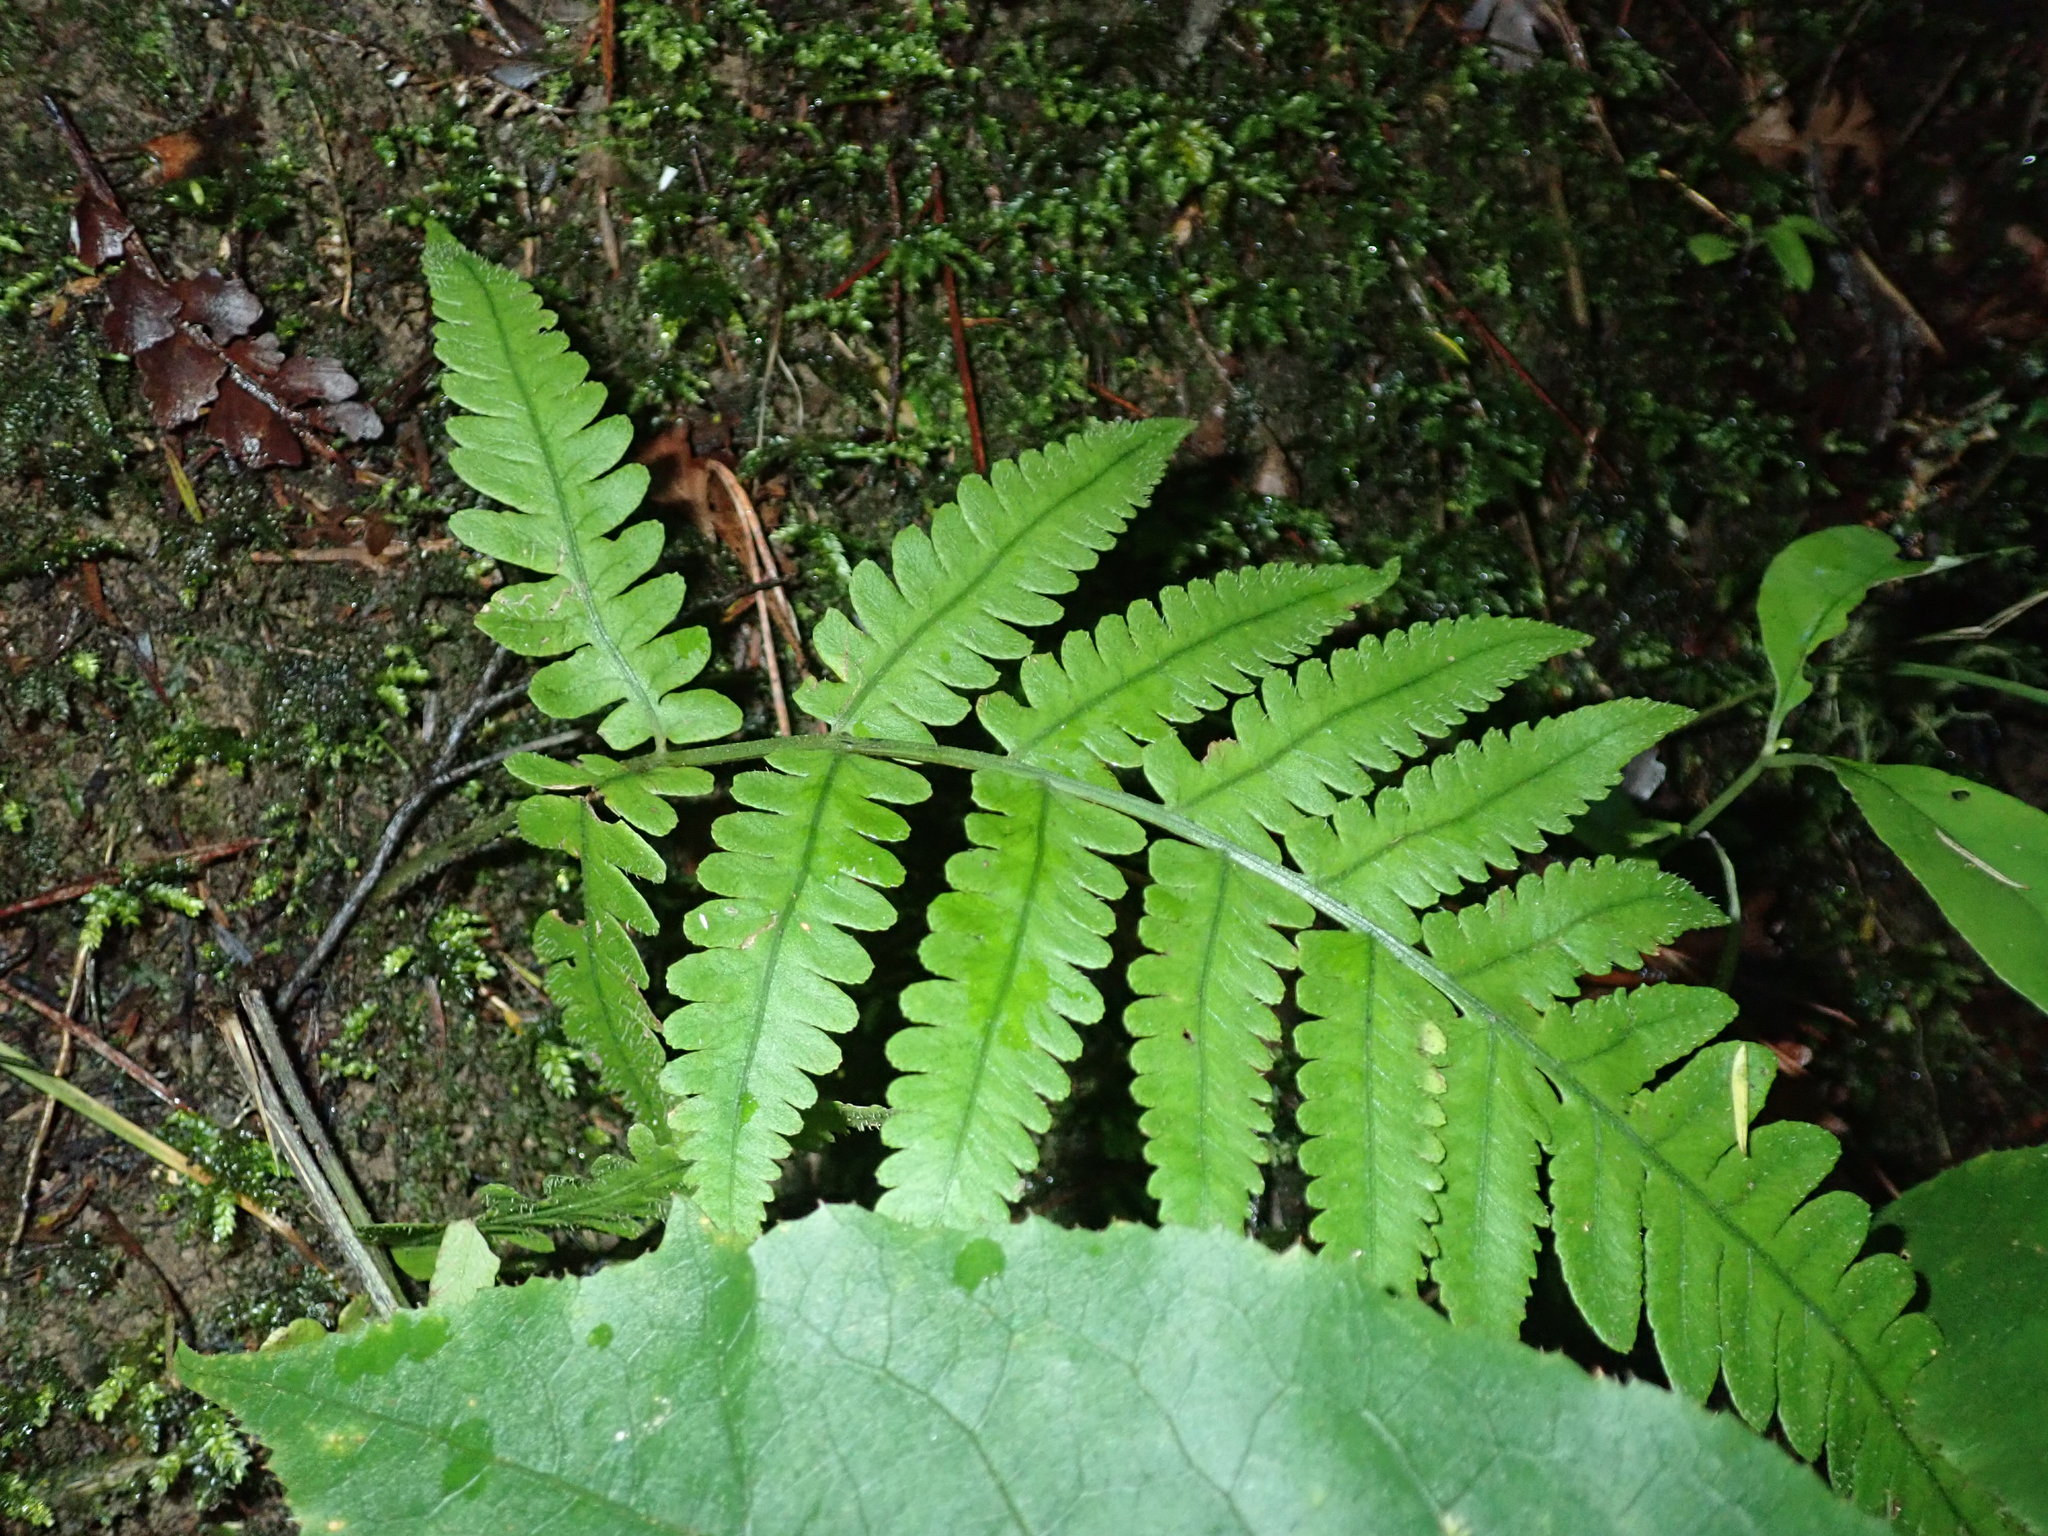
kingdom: Plantae
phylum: Tracheophyta
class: Polypodiopsida
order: Polypodiales
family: Athyriaceae
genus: Deparia
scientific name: Deparia petersenii
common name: Japanese false spleenwort
